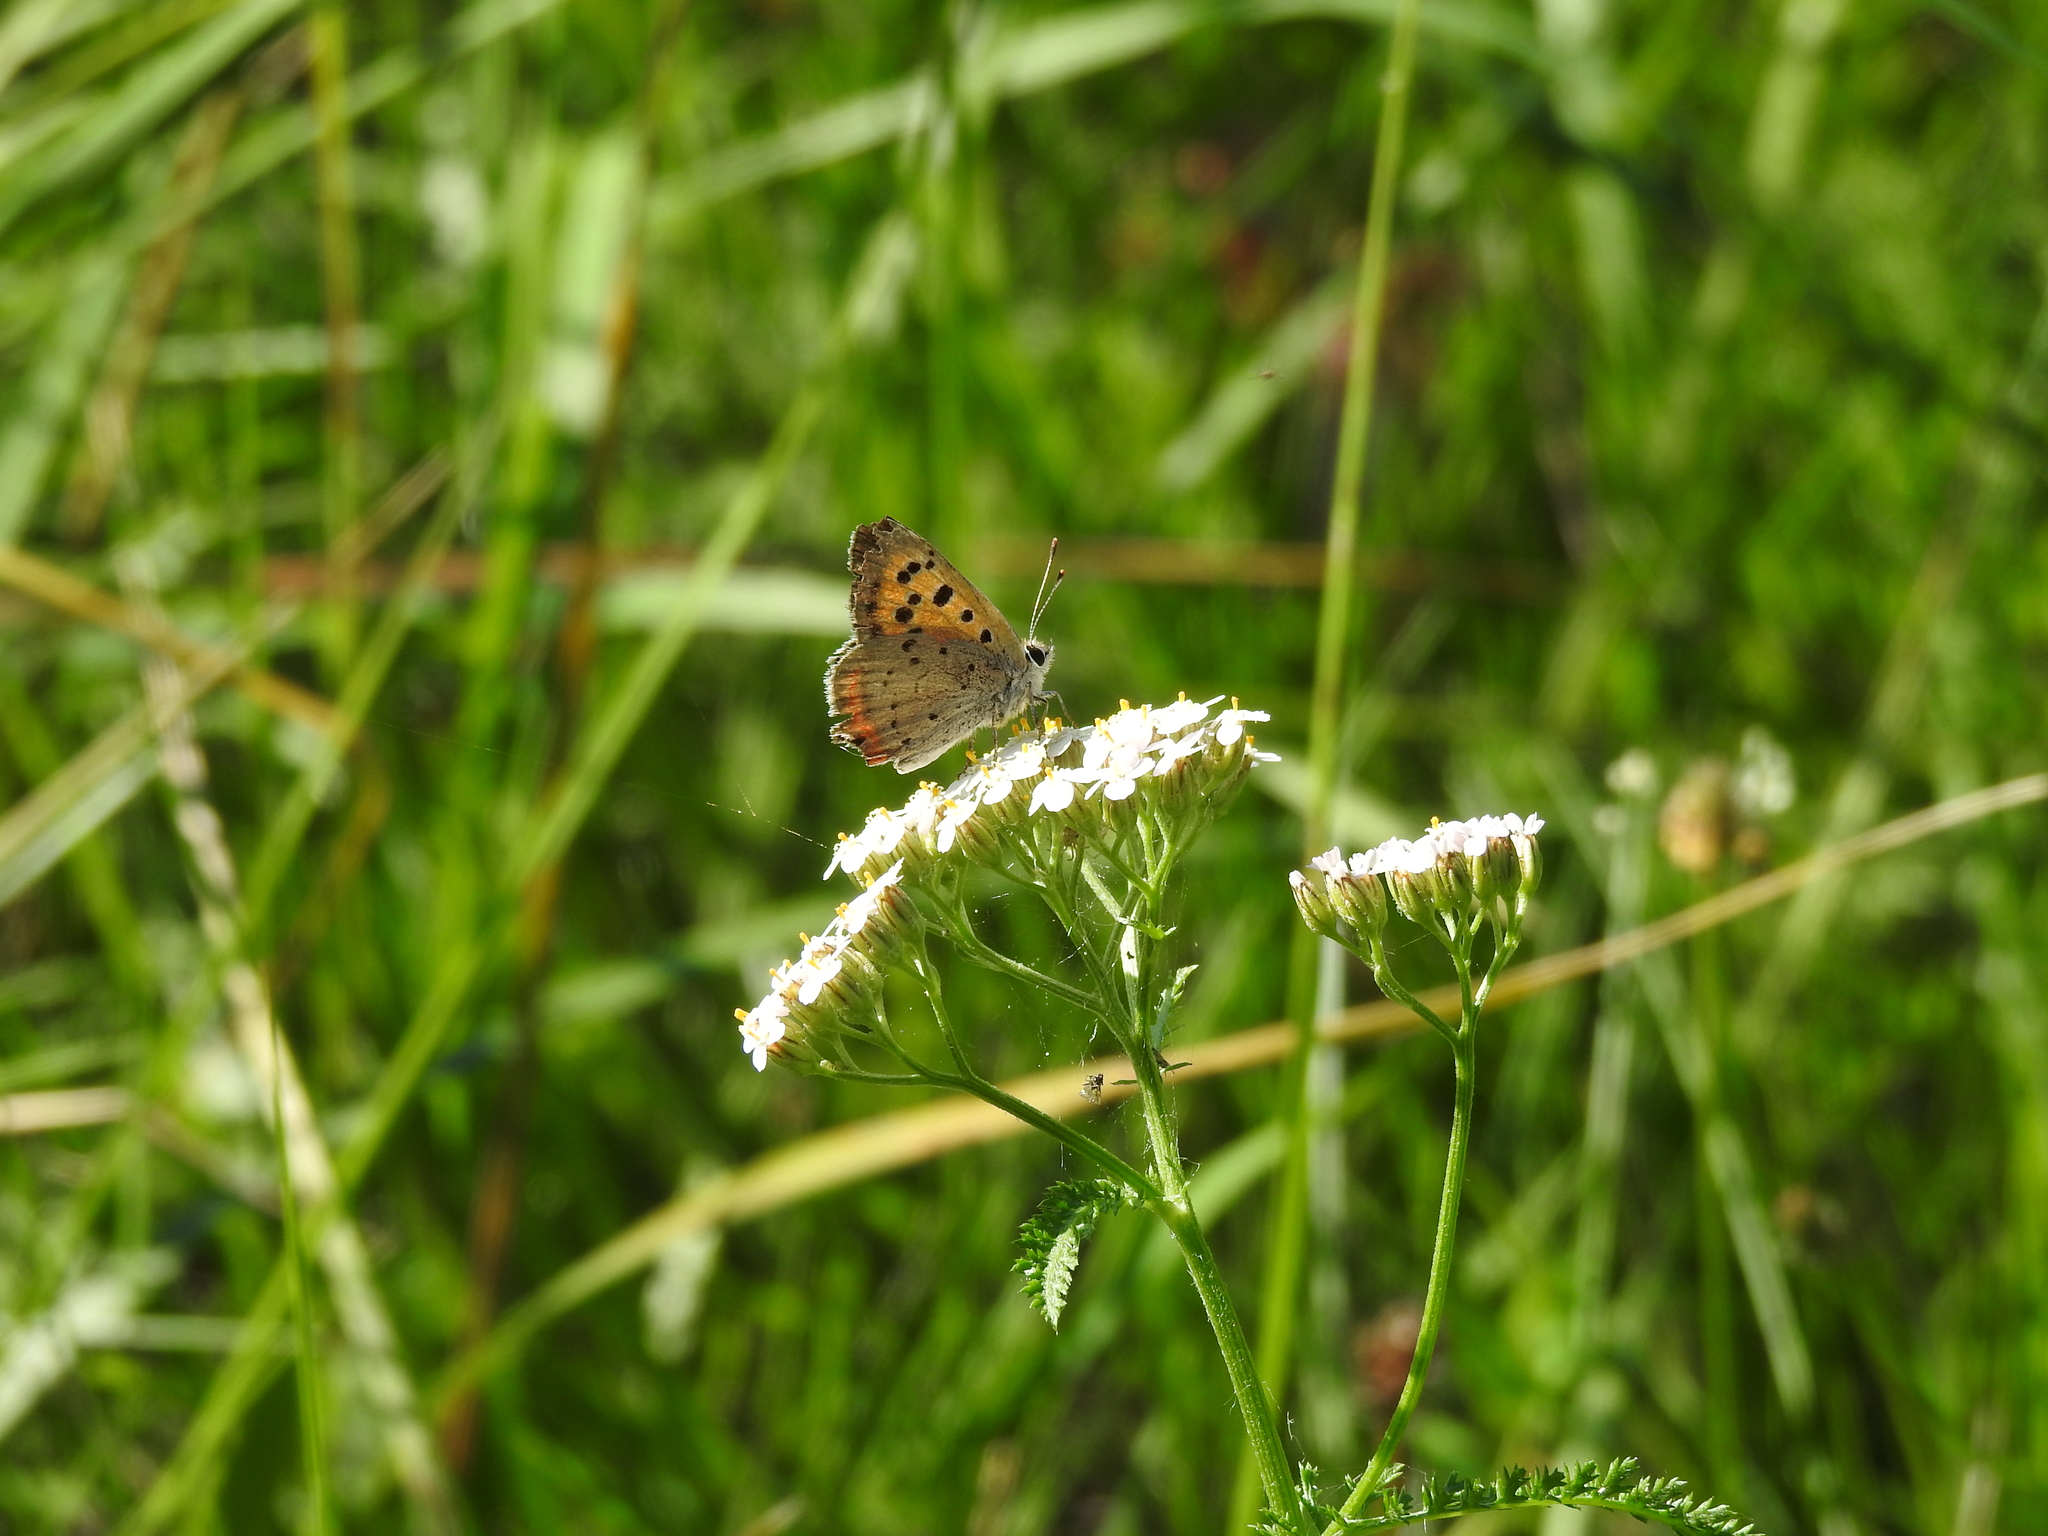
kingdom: Animalia
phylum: Arthropoda
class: Insecta
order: Lepidoptera
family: Lycaenidae
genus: Lycaena
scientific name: Lycaena phlaeas
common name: Small copper
